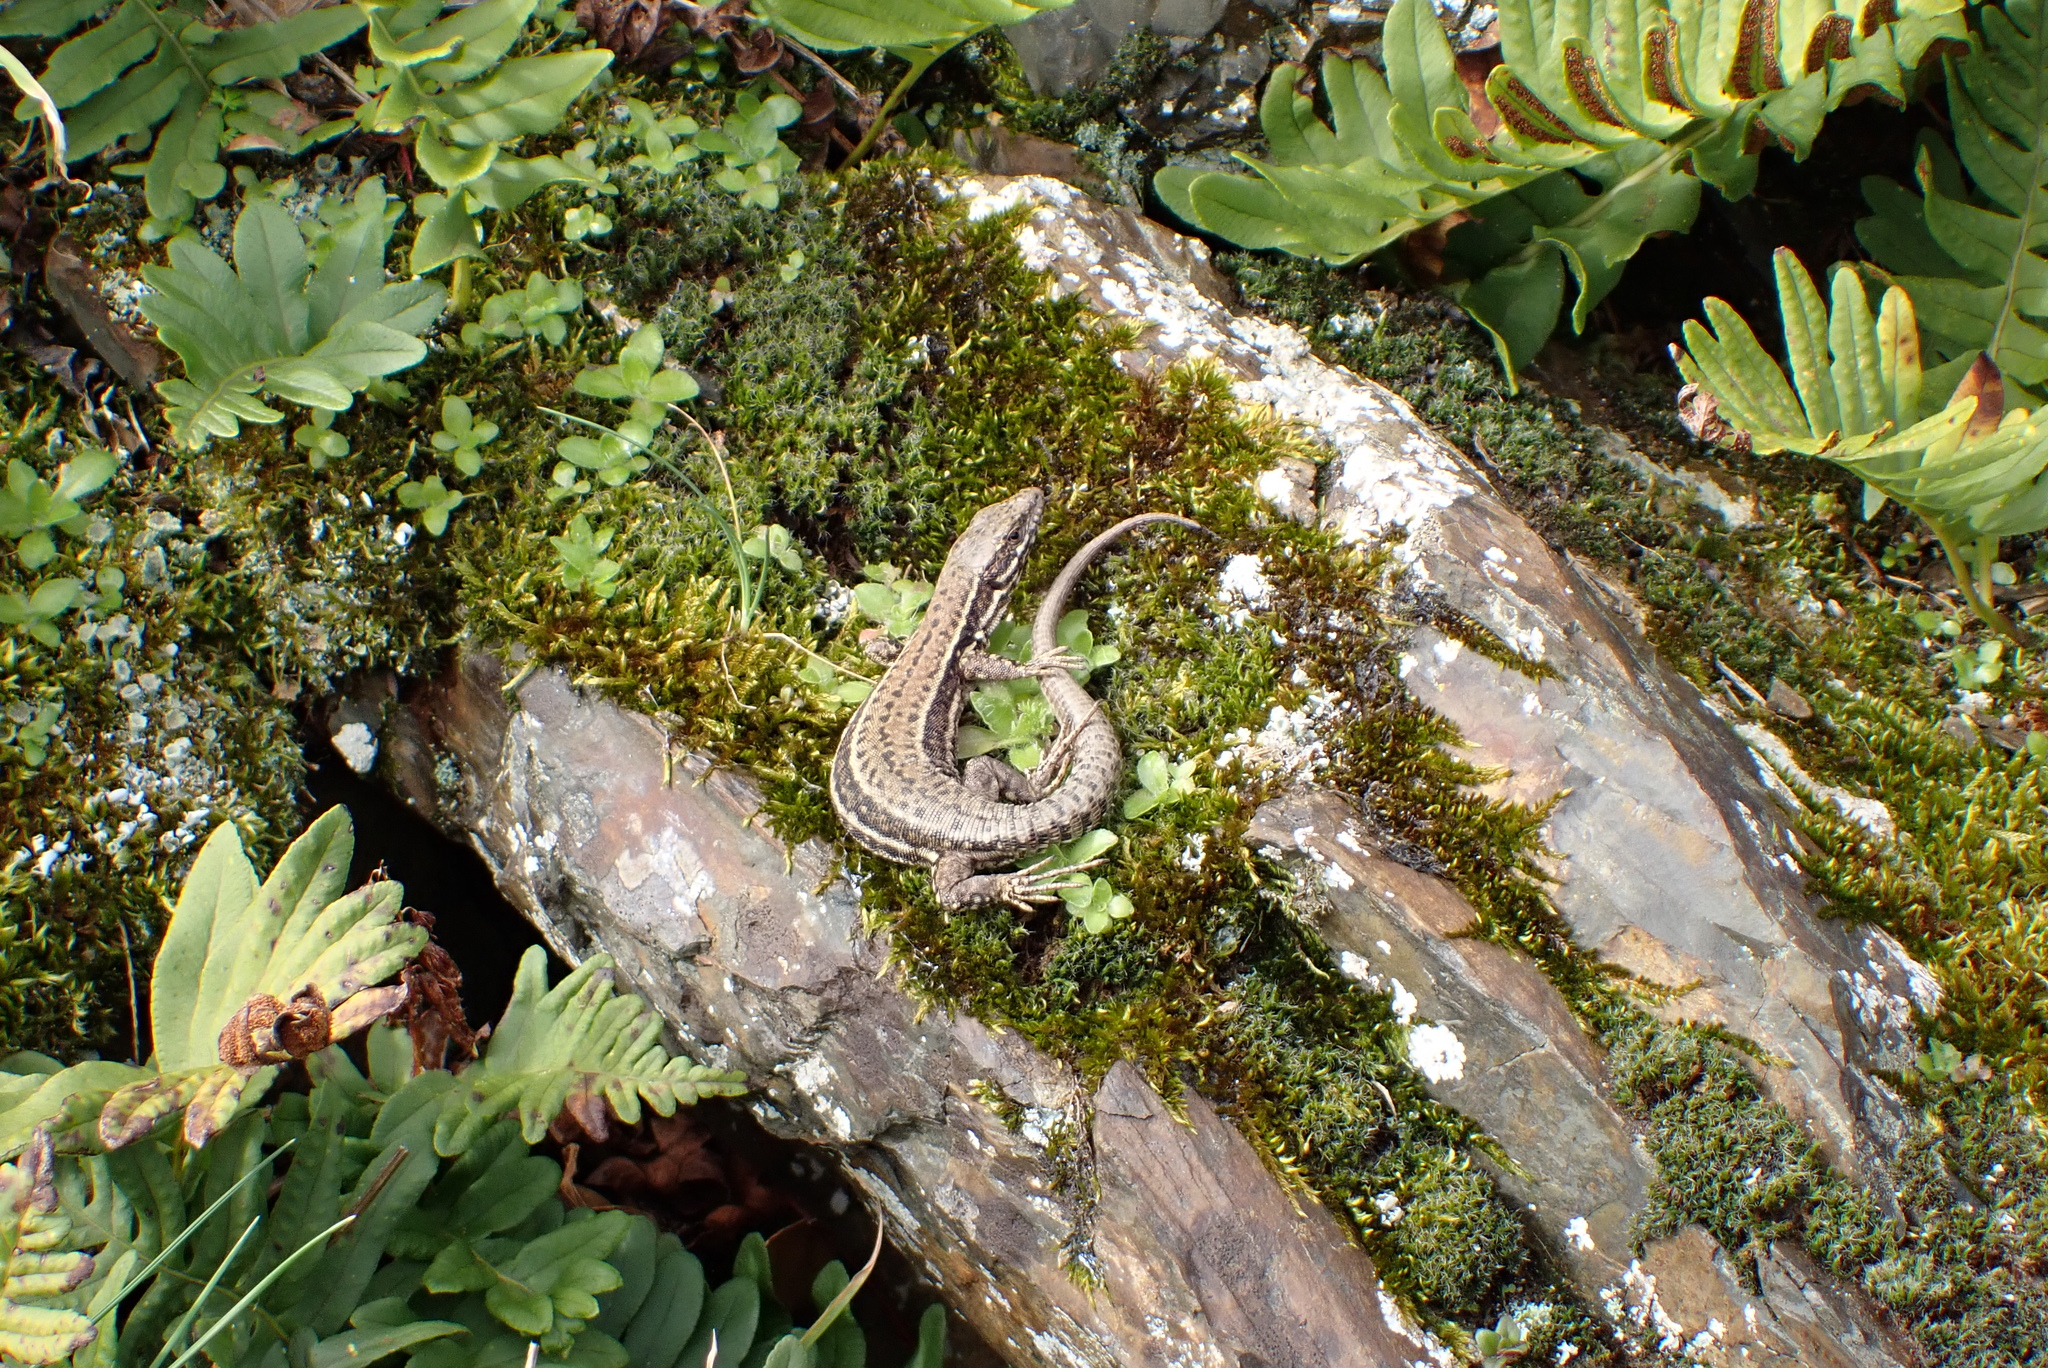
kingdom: Animalia
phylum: Chordata
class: Squamata
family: Lacertidae
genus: Podarcis
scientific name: Podarcis muralis
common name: Common wall lizard
